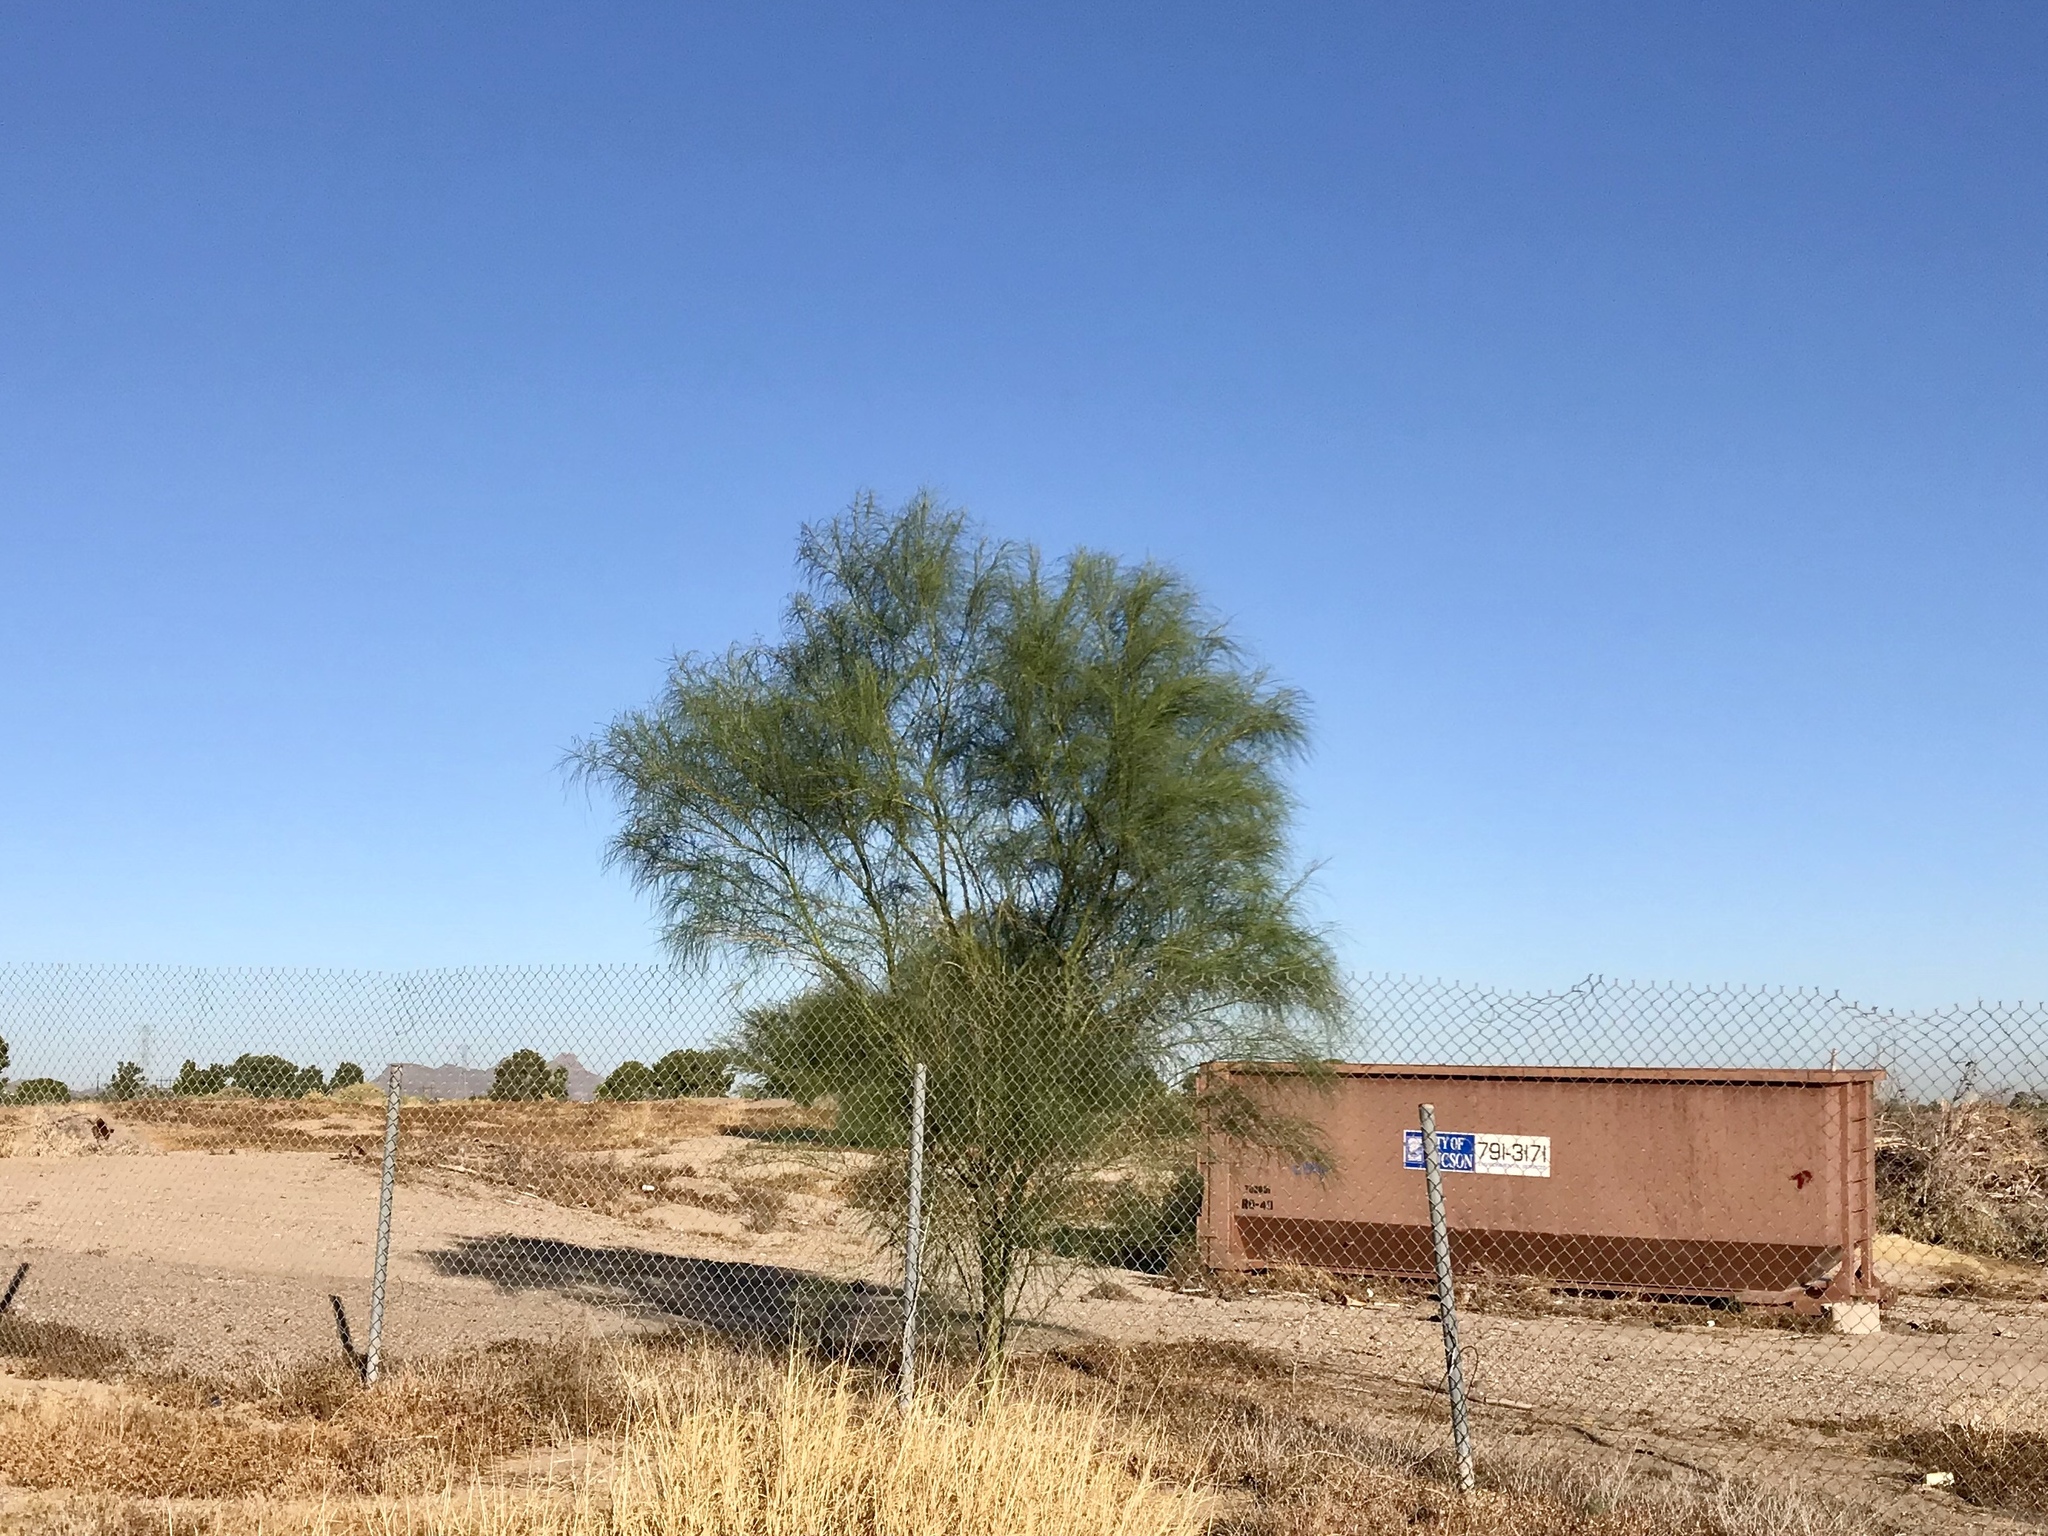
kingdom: Plantae
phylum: Tracheophyta
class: Magnoliopsida
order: Fabales
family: Fabaceae
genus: Parkinsonia
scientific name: Parkinsonia aculeata
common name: Jerusalem thorn
